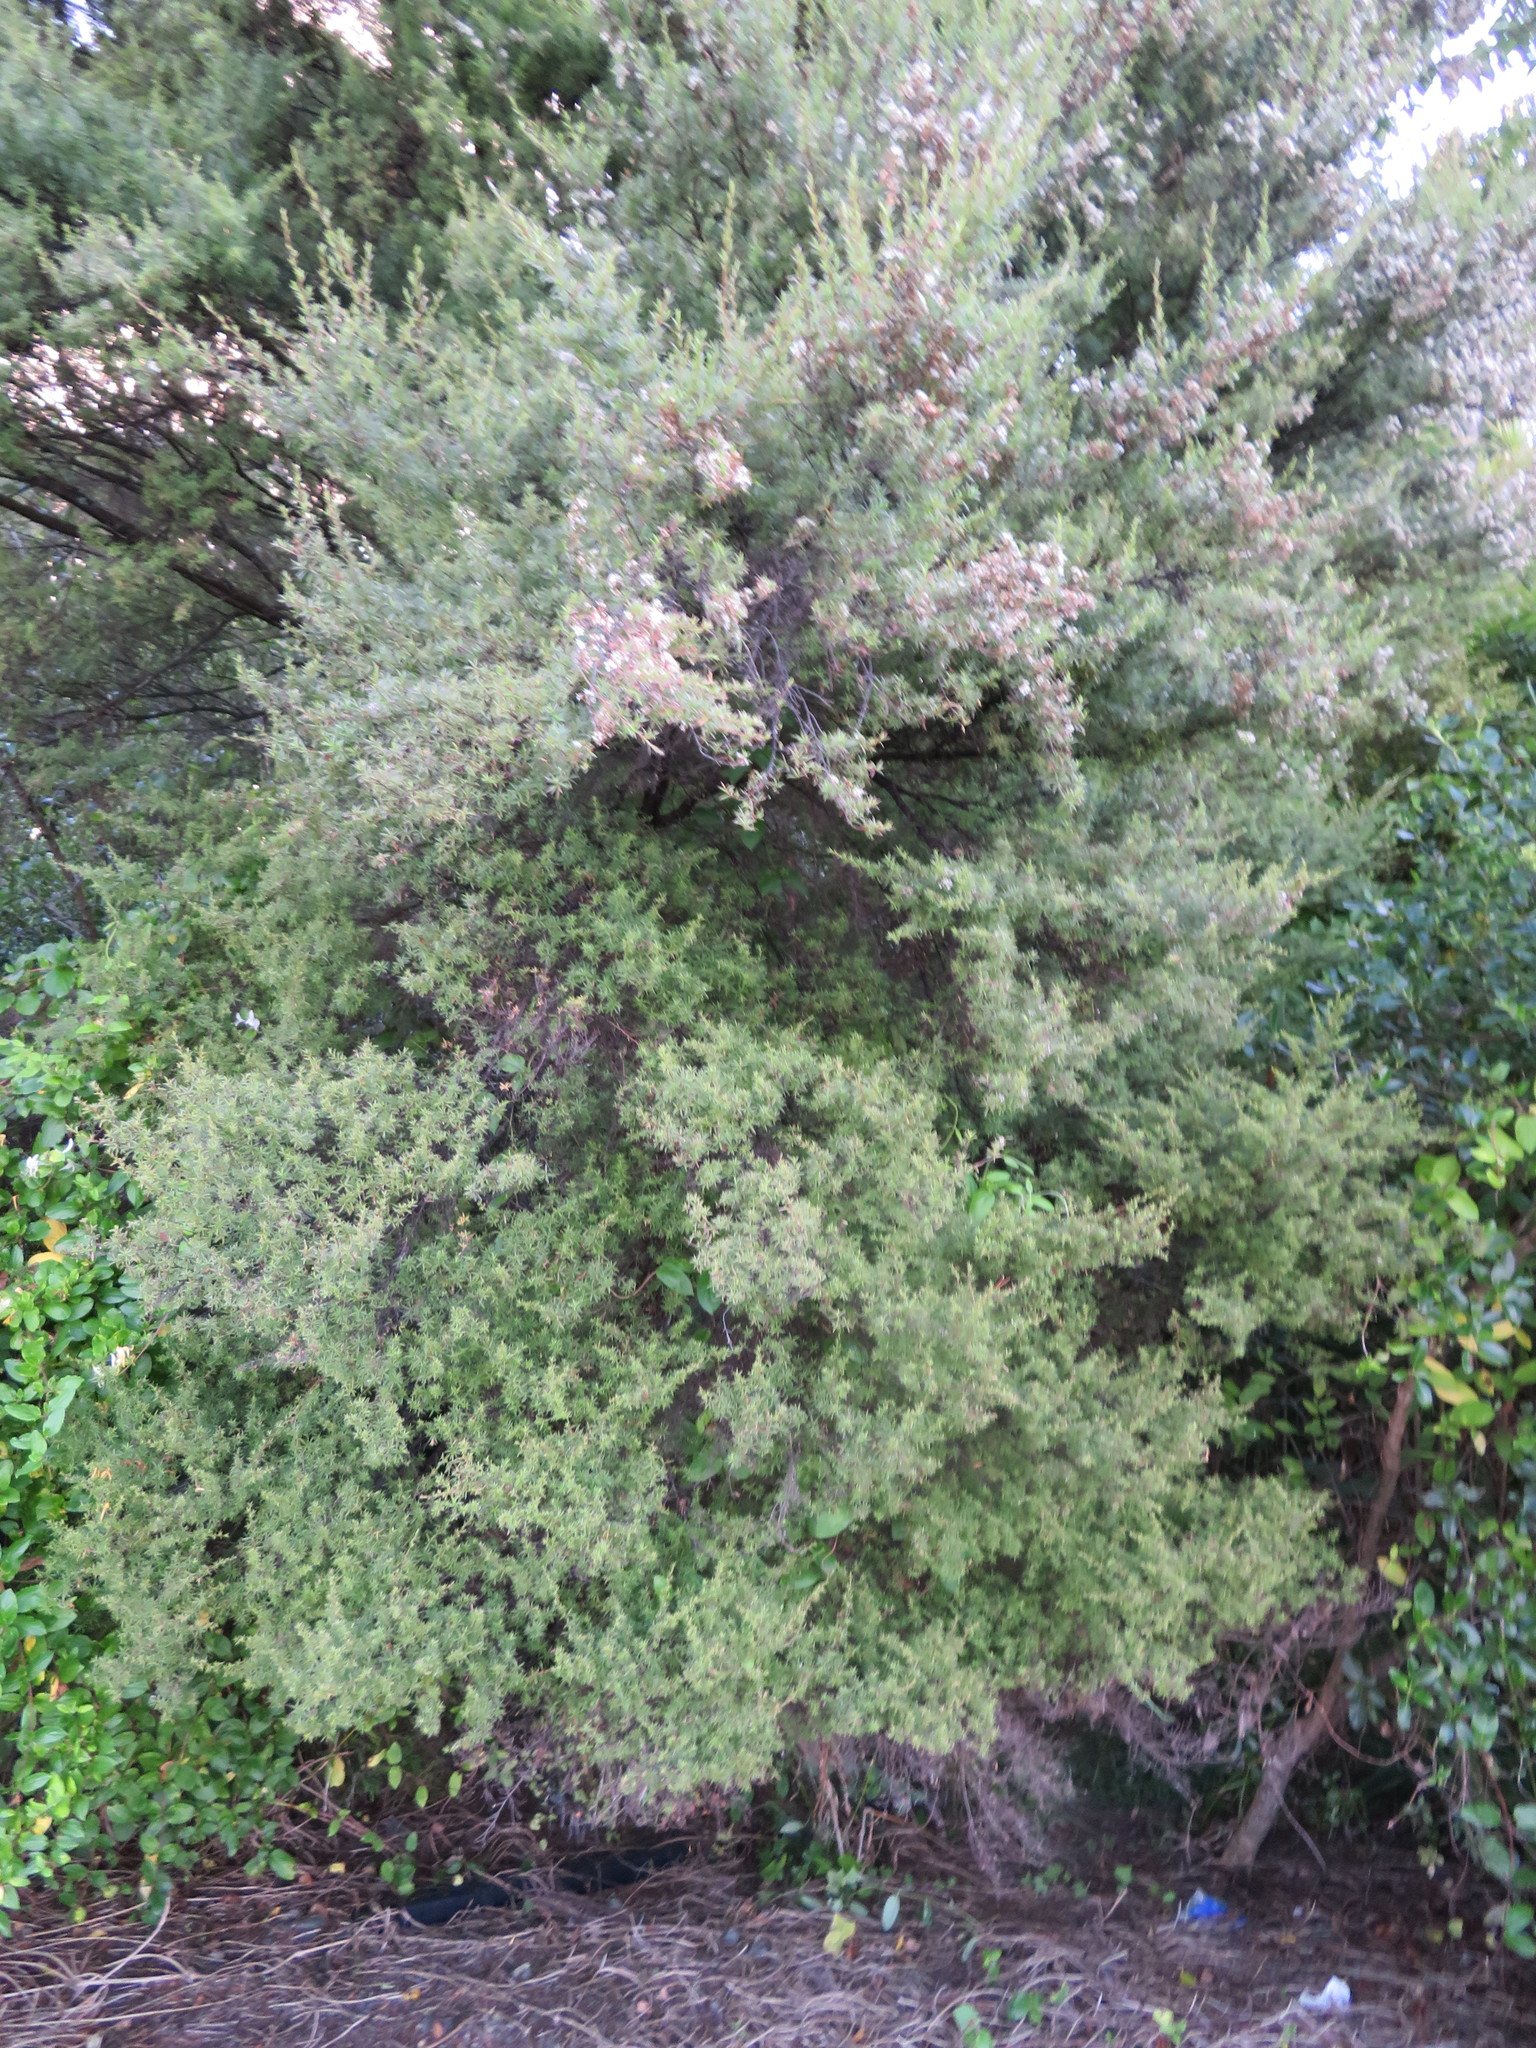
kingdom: Plantae
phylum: Tracheophyta
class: Magnoliopsida
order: Myrtales
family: Myrtaceae
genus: Leptospermum
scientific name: Leptospermum scoparium
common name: Broom tea-tree
